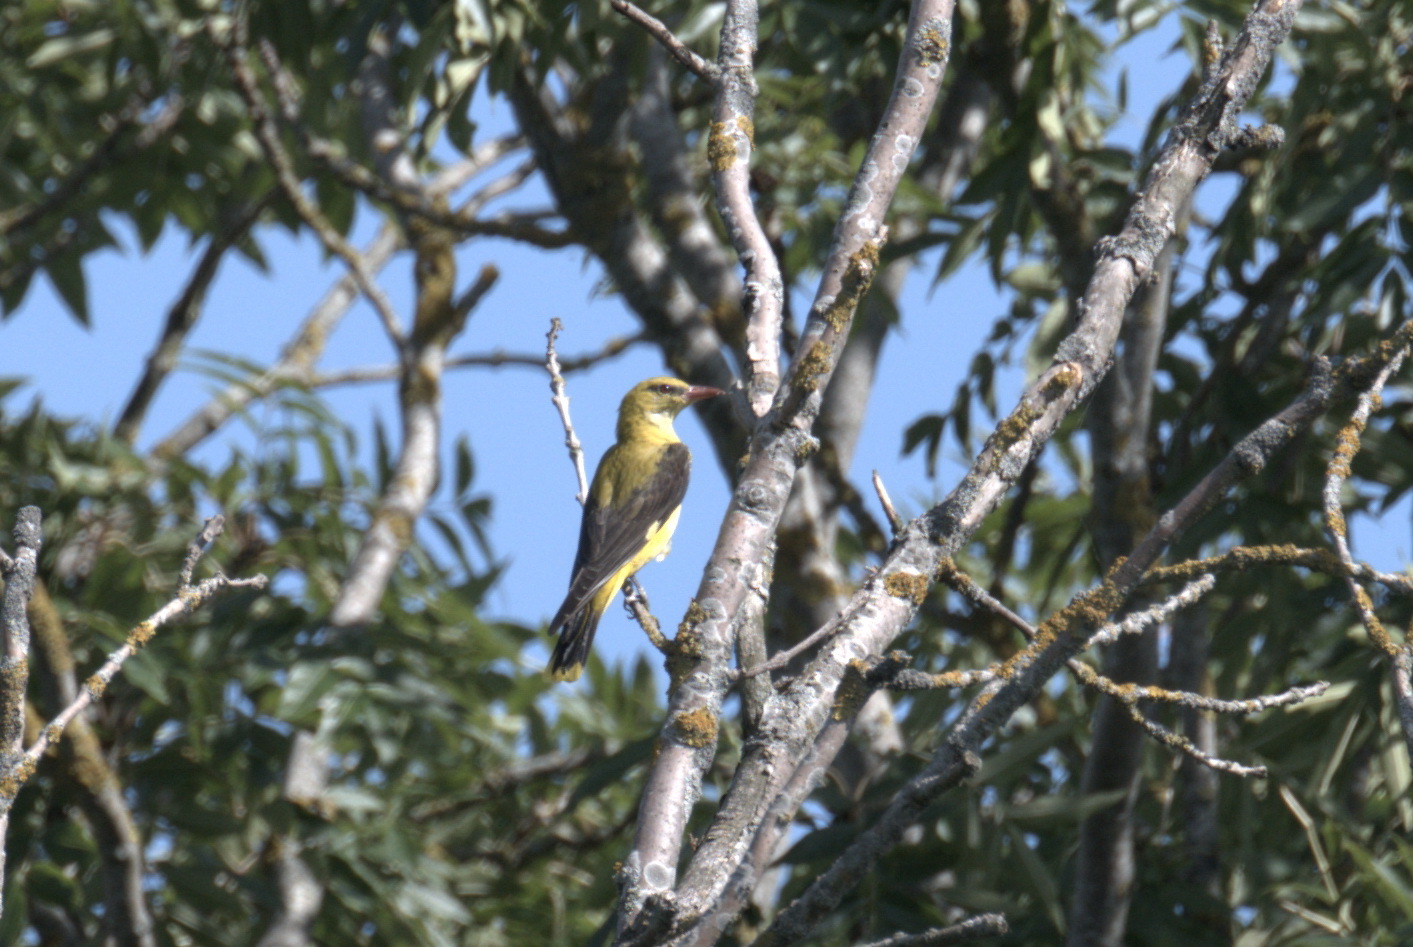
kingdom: Animalia
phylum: Chordata
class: Aves
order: Passeriformes
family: Oriolidae
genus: Oriolus
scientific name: Oriolus oriolus
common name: Eurasian golden oriole
